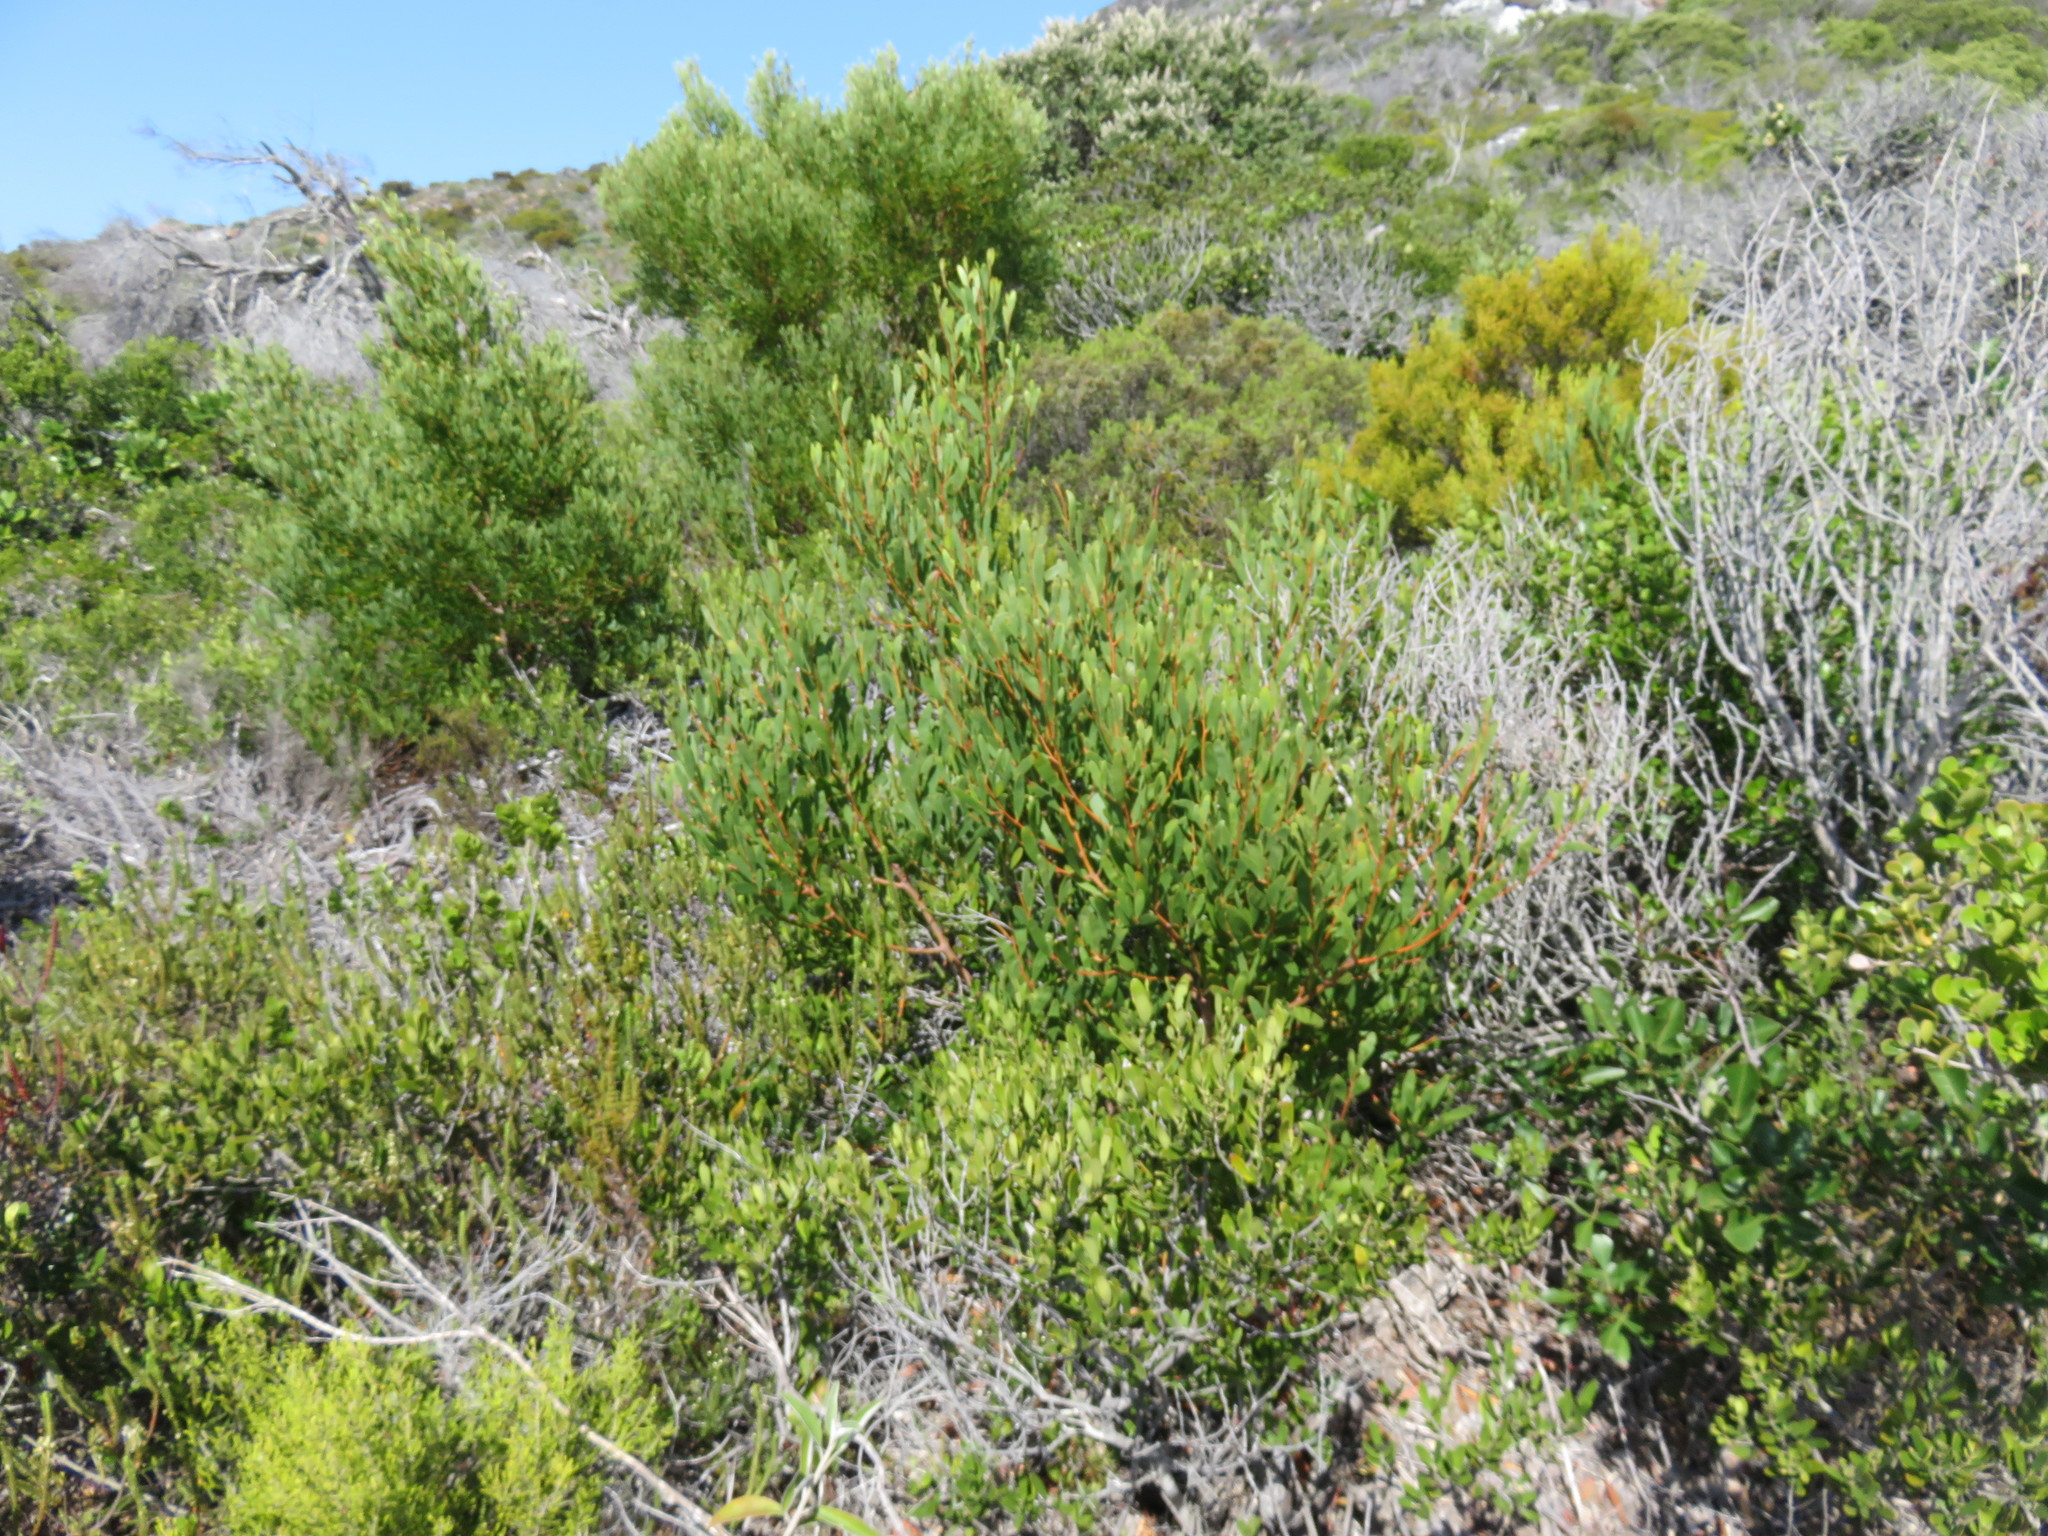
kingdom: Plantae
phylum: Tracheophyta
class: Magnoliopsida
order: Fabales
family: Fabaceae
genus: Acacia
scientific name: Acacia cyclops
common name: Coastal wattle
